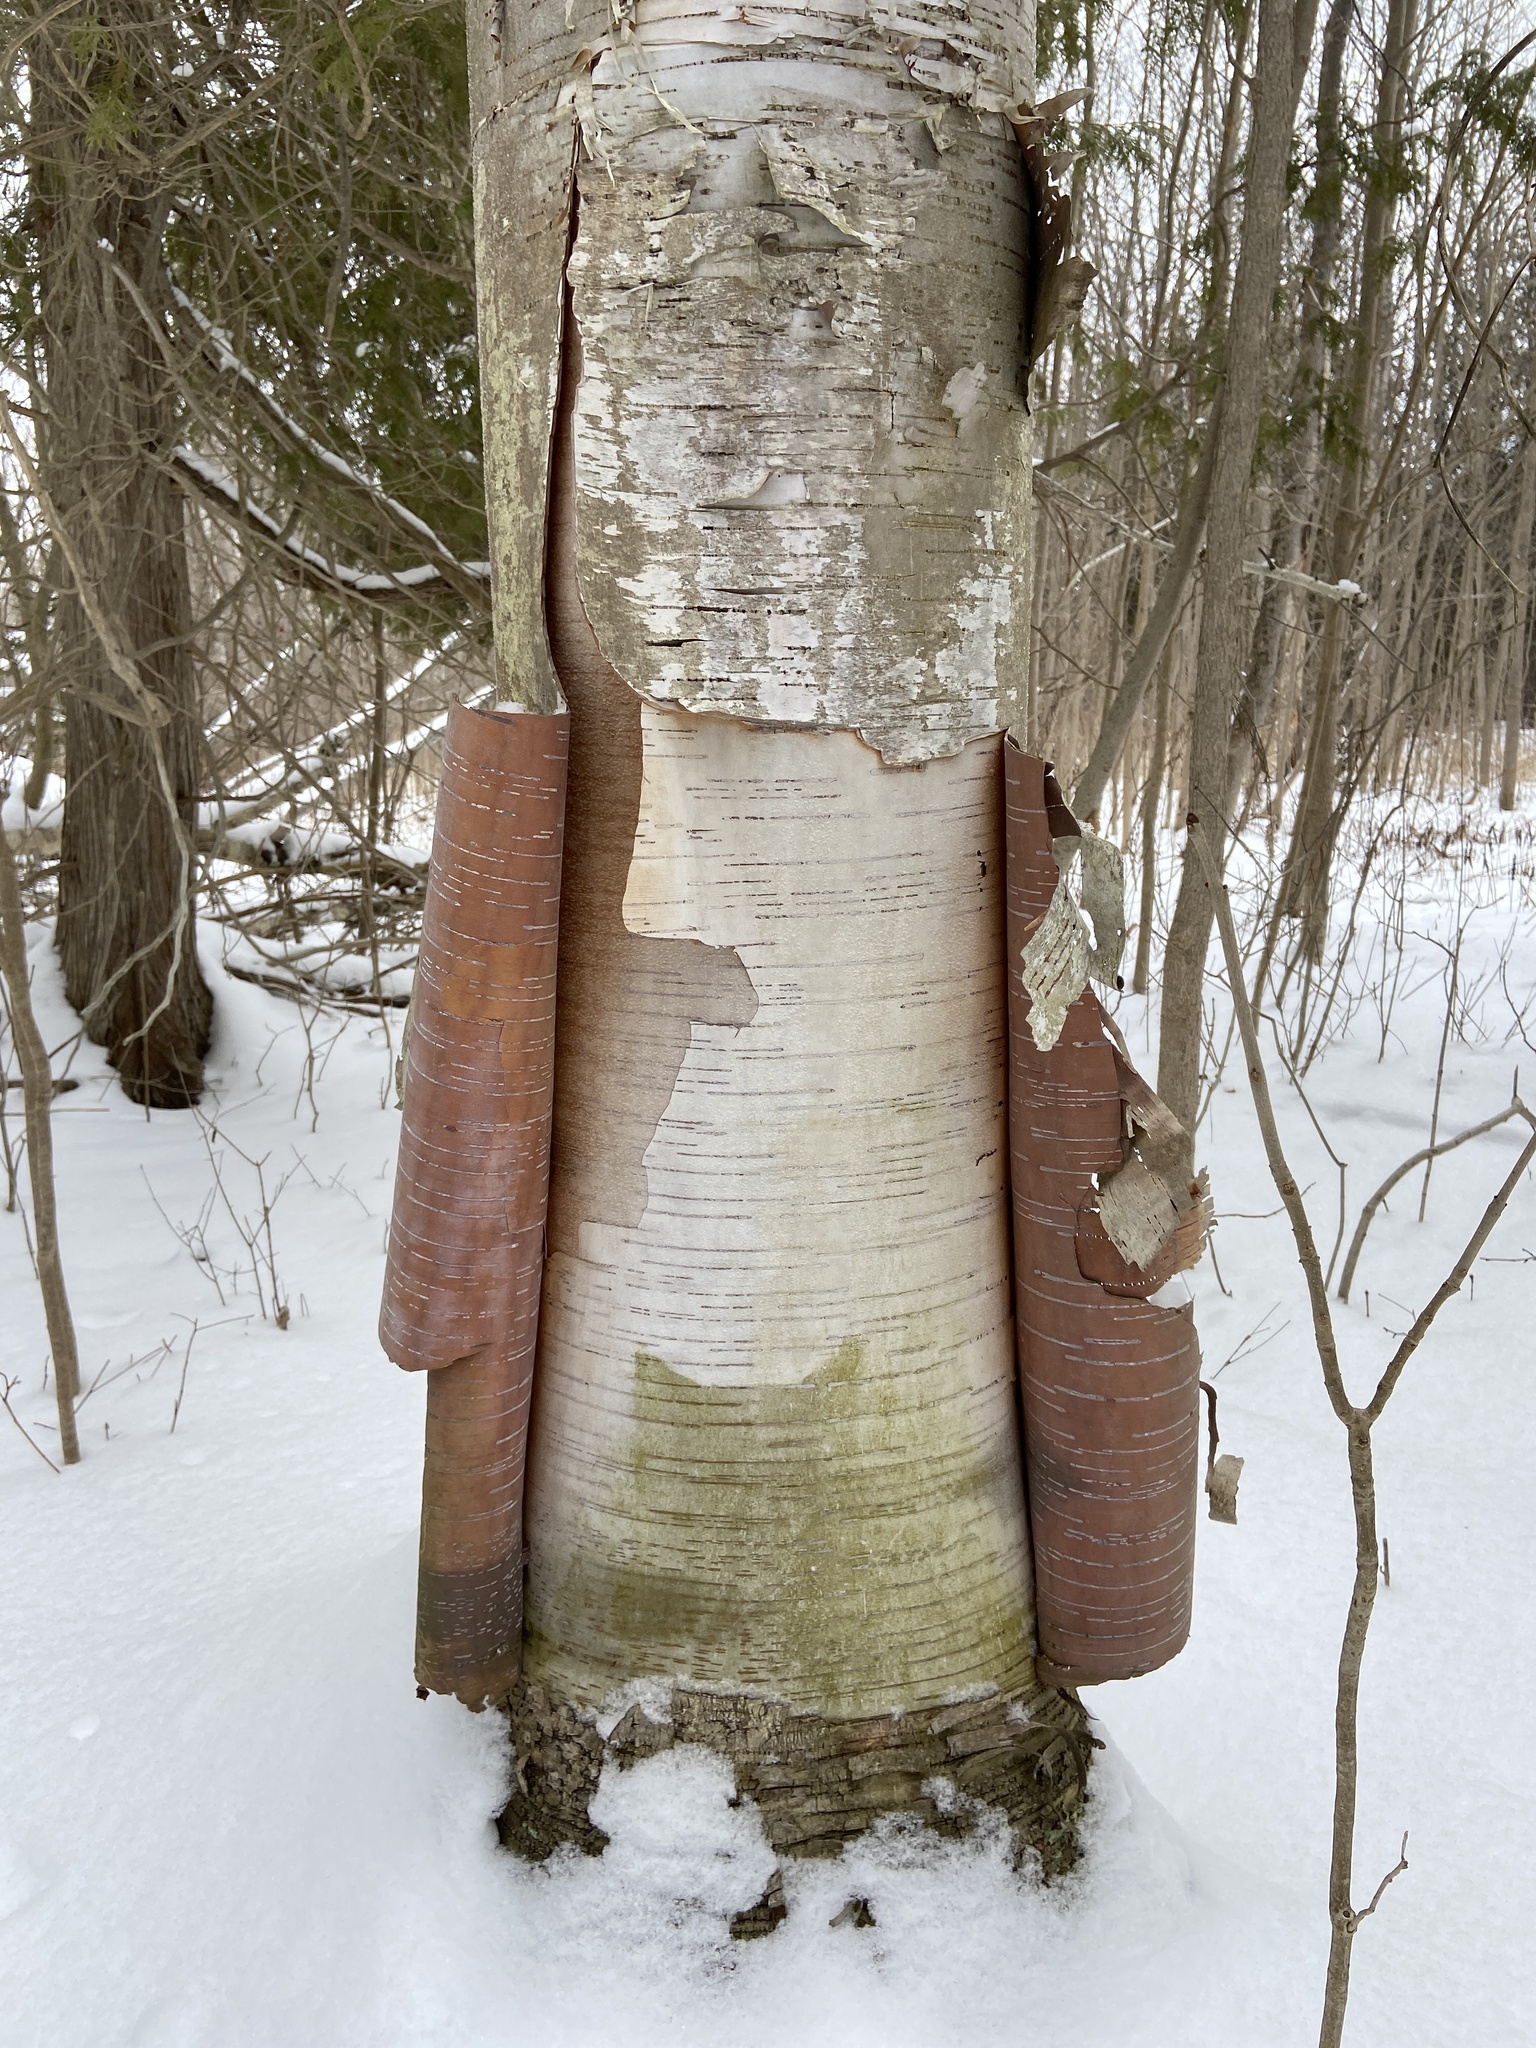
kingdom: Plantae
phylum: Tracheophyta
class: Magnoliopsida
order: Fagales
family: Betulaceae
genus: Betula
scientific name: Betula papyrifera
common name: Paper birch
